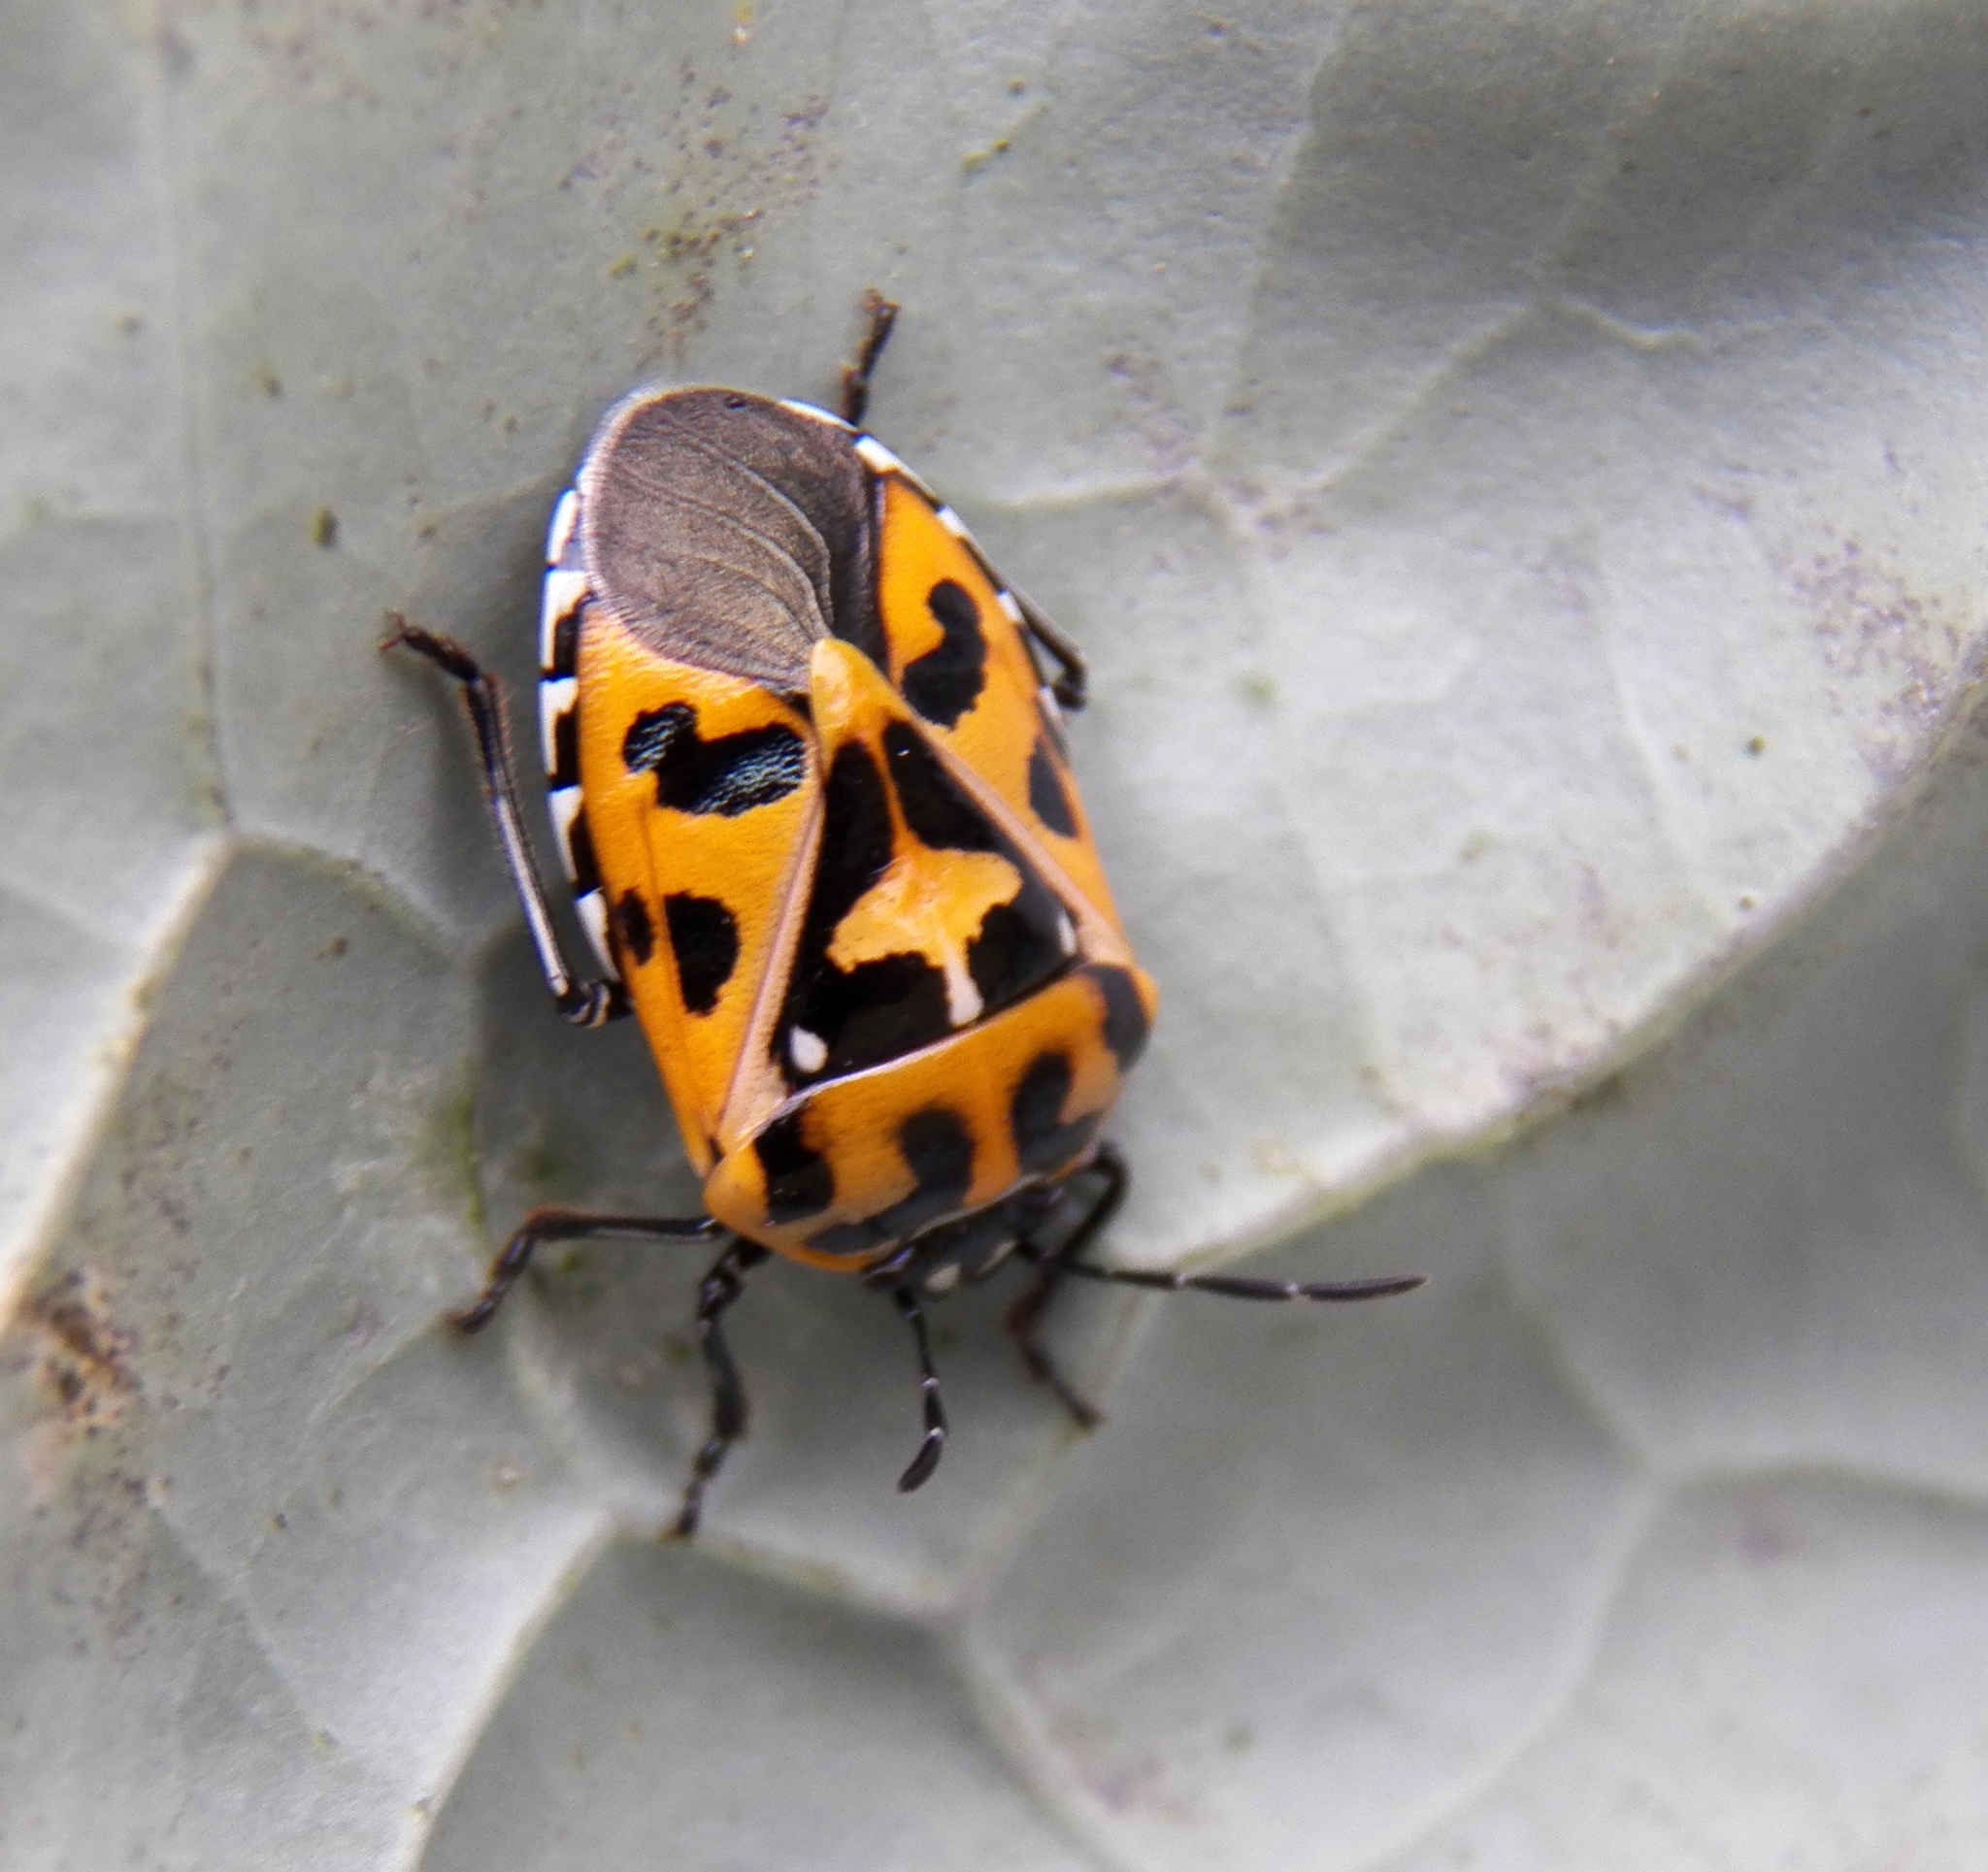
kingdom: Animalia
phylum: Arthropoda
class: Insecta
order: Hemiptera
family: Pentatomidae
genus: Murgantia
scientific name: Murgantia histrionica
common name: Harlequin bug
